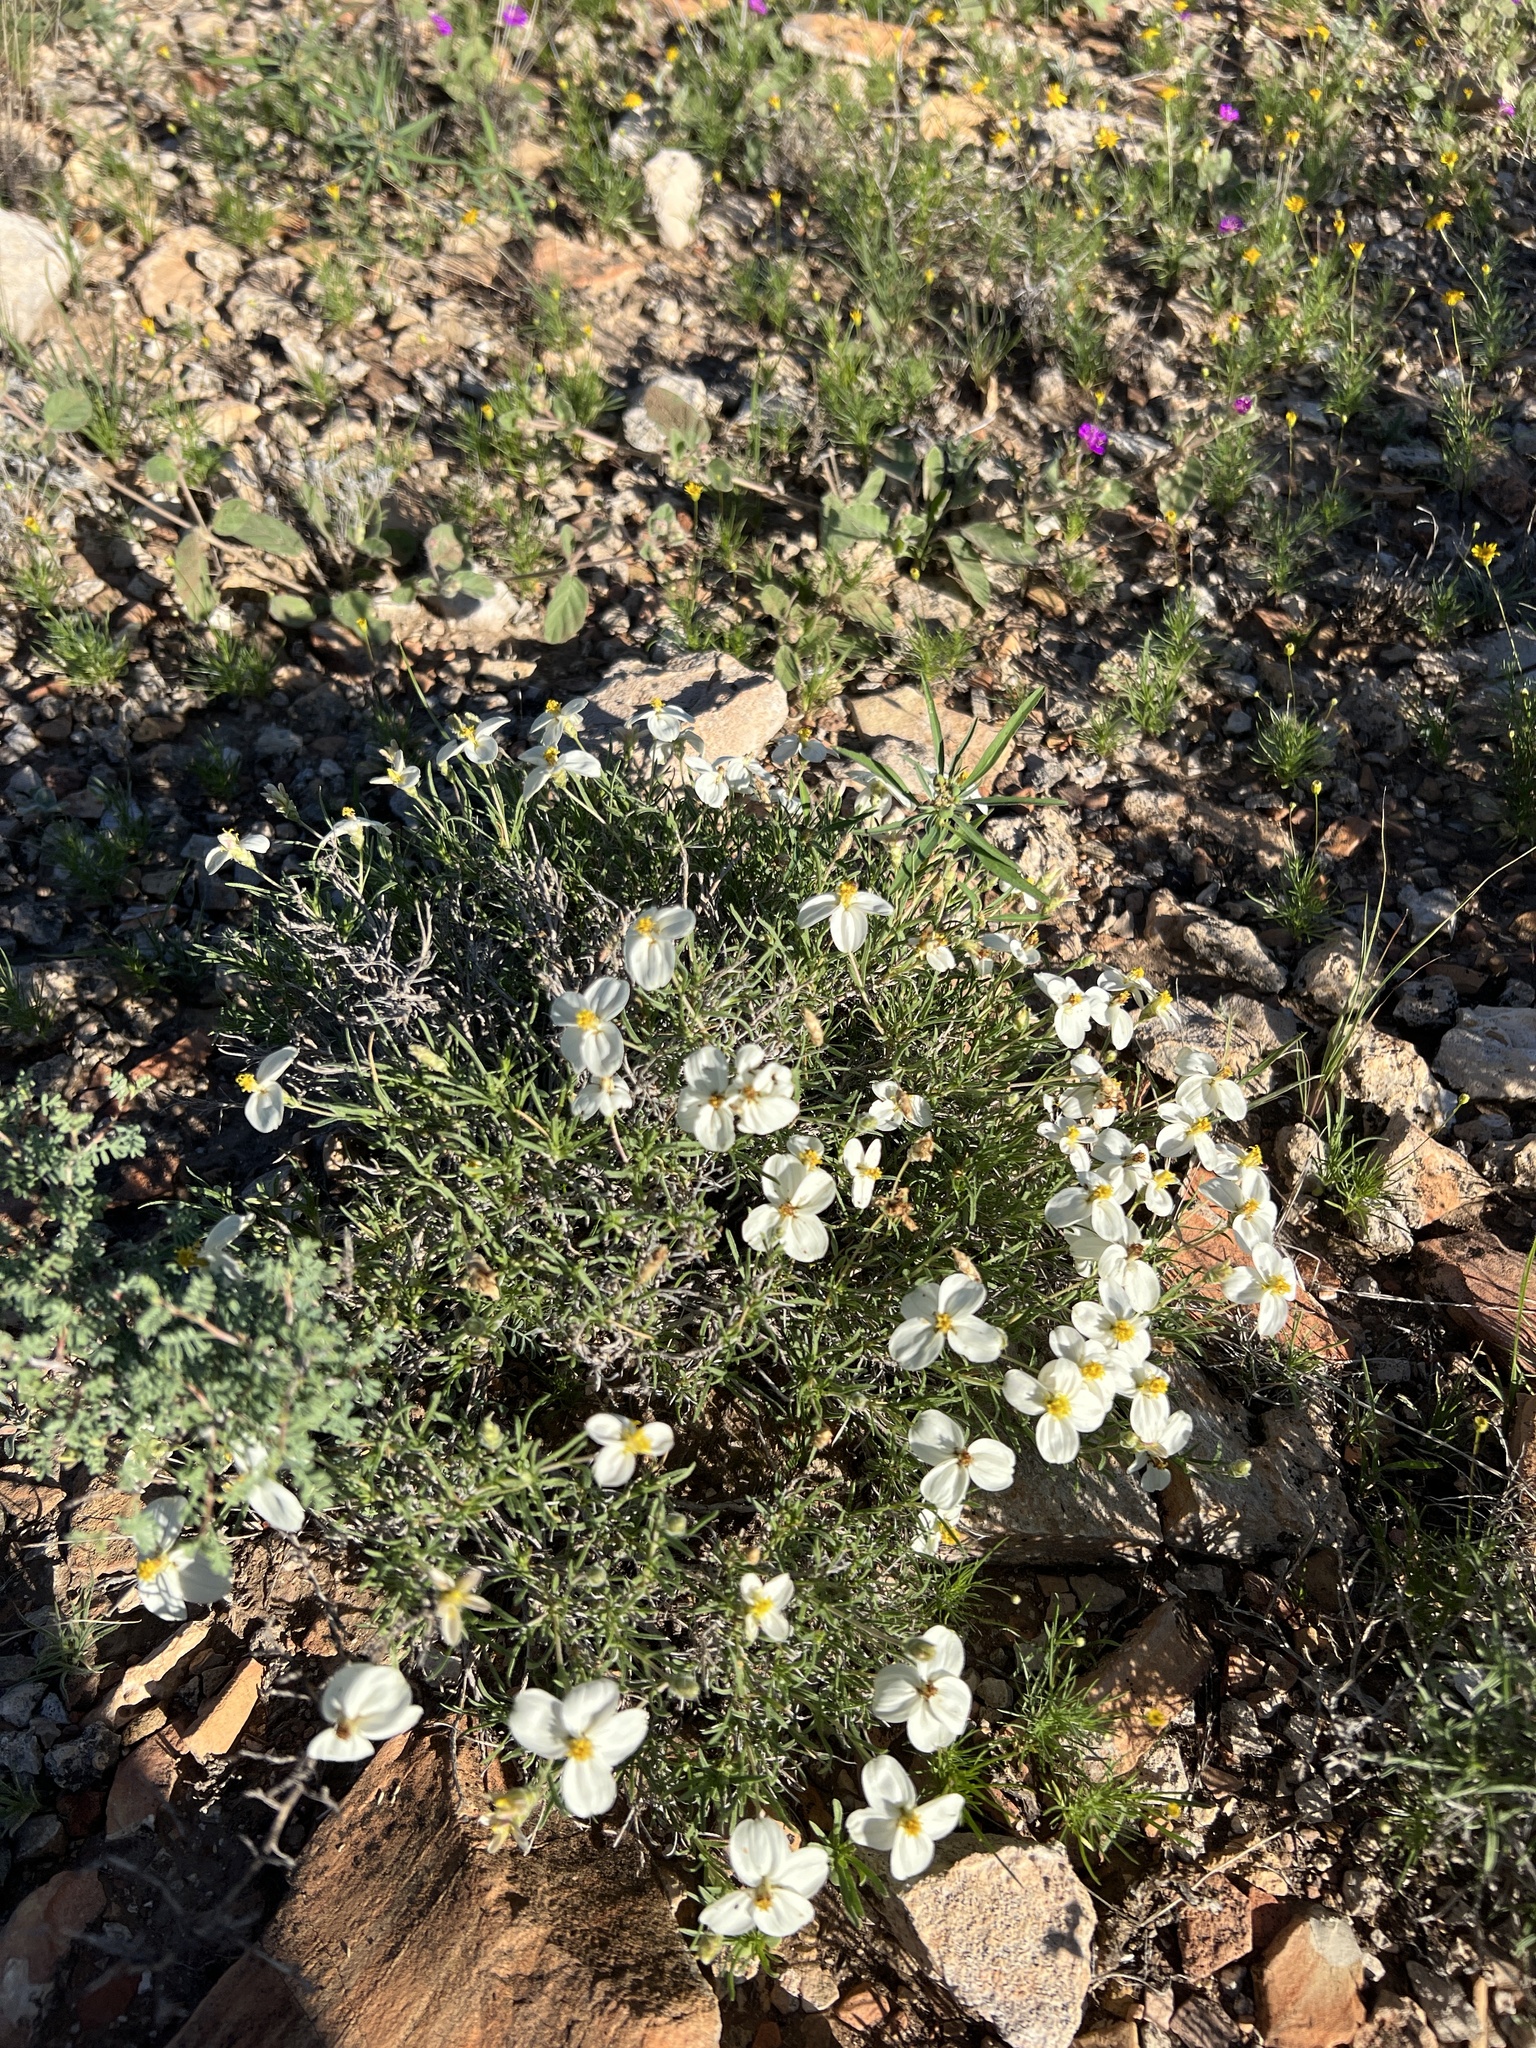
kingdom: Plantae
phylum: Tracheophyta
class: Magnoliopsida
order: Asterales
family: Asteraceae
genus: Zinnia
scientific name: Zinnia acerosa
